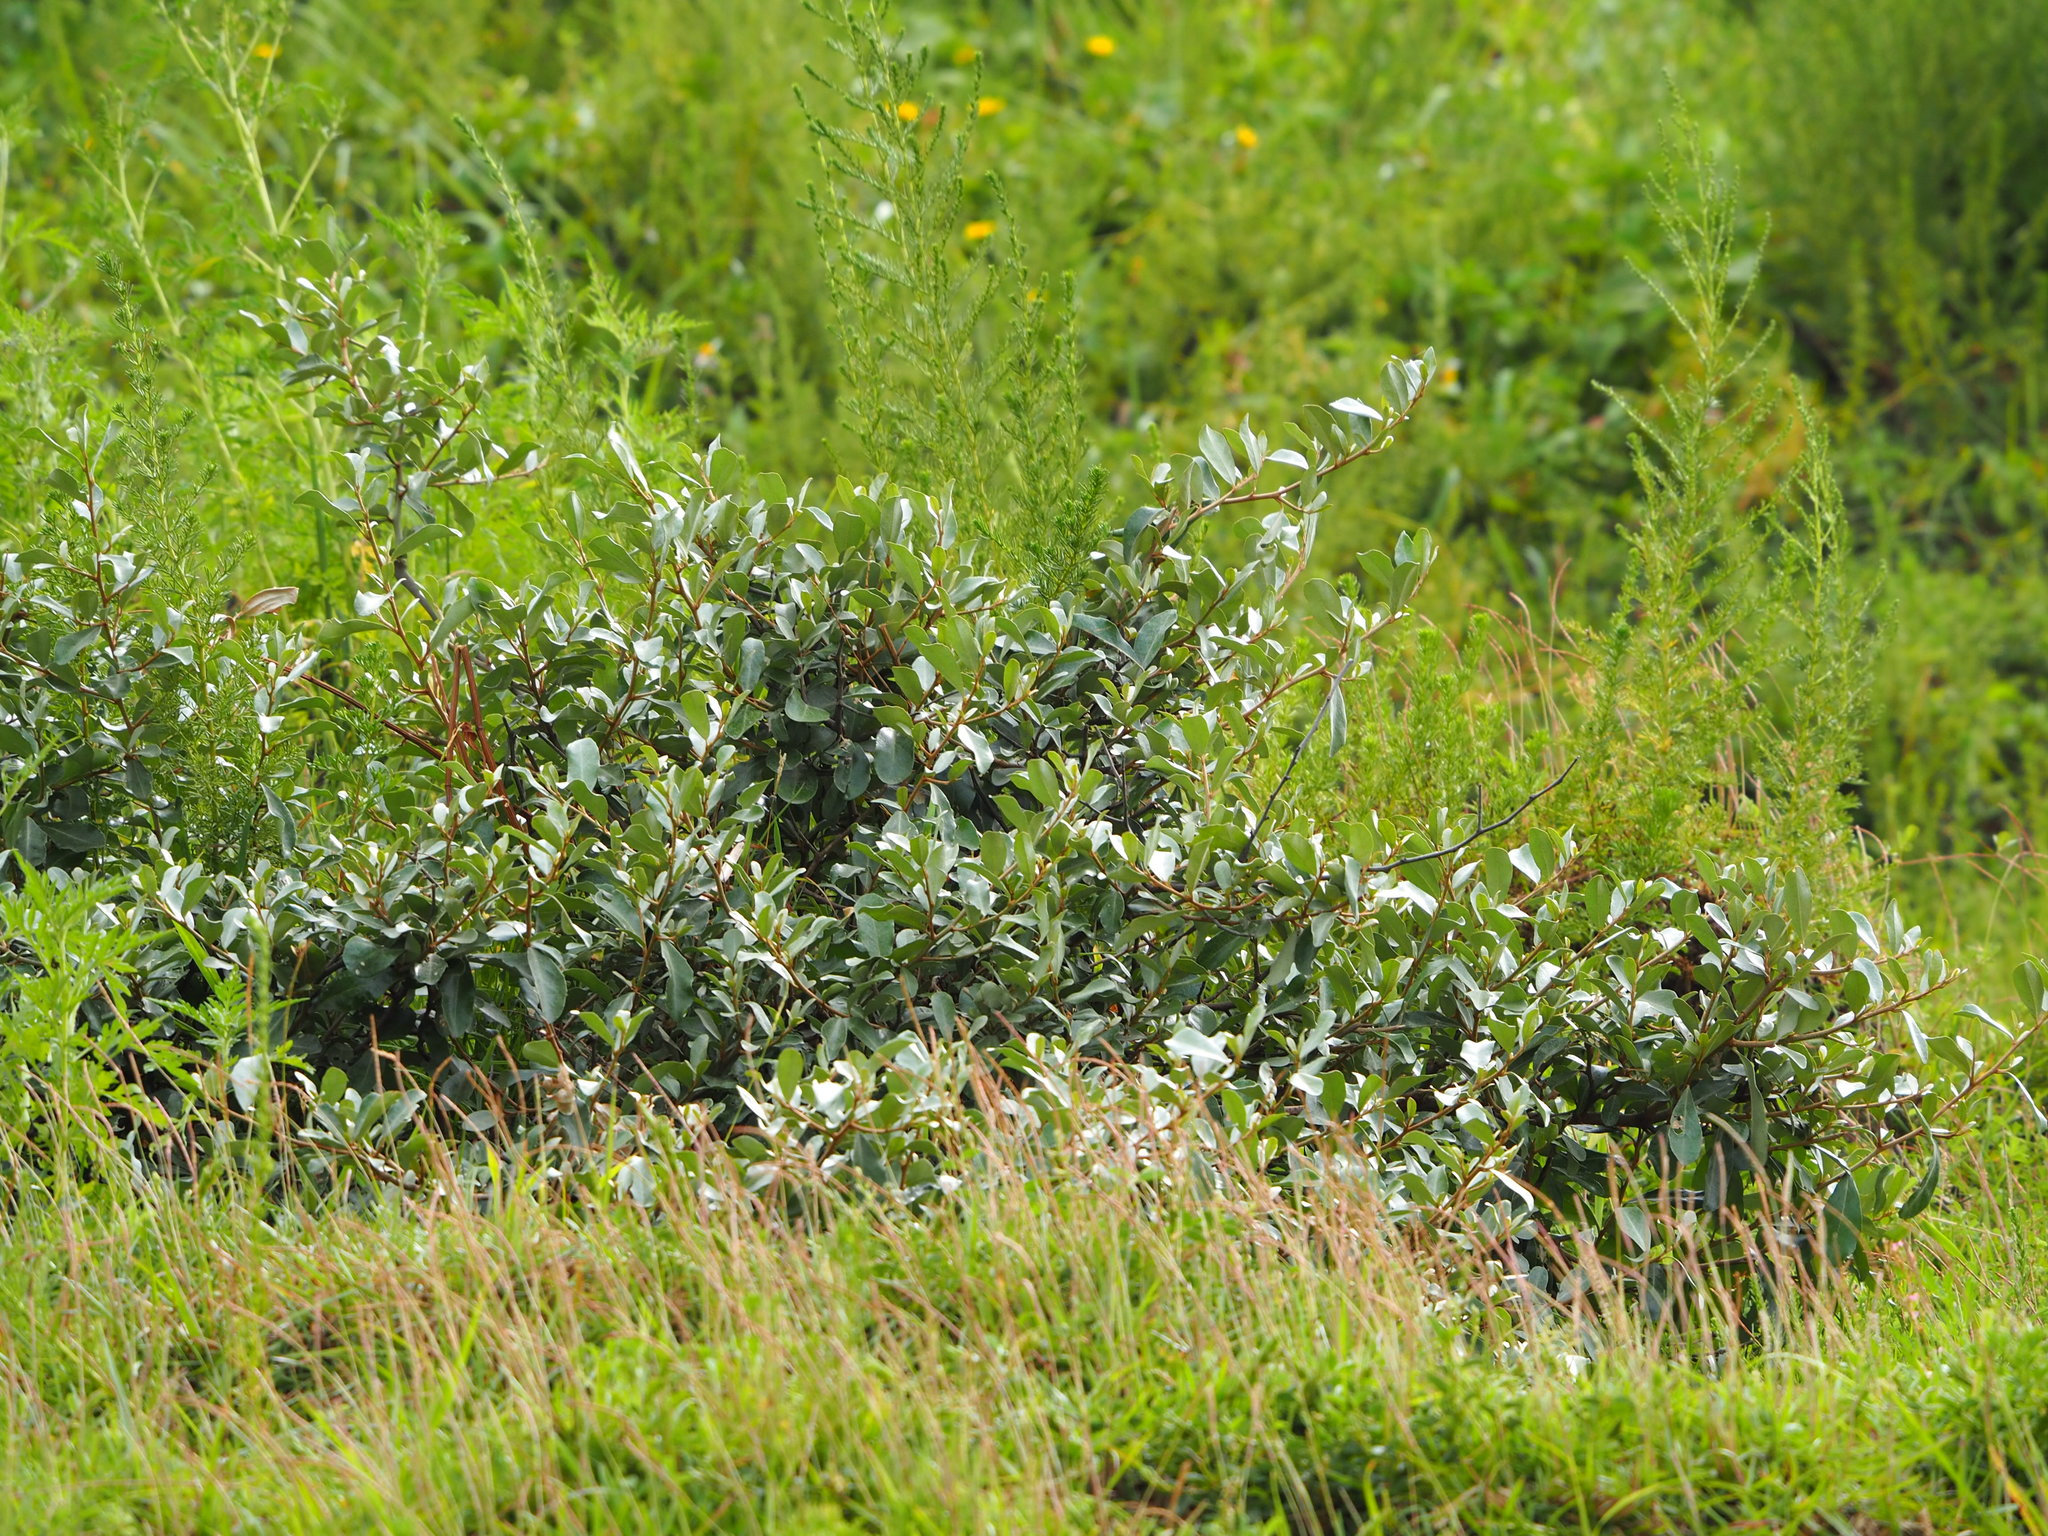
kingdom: Plantae
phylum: Tracheophyta
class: Magnoliopsida
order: Rosales
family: Elaeagnaceae
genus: Elaeagnus
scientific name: Elaeagnus oldhamii
